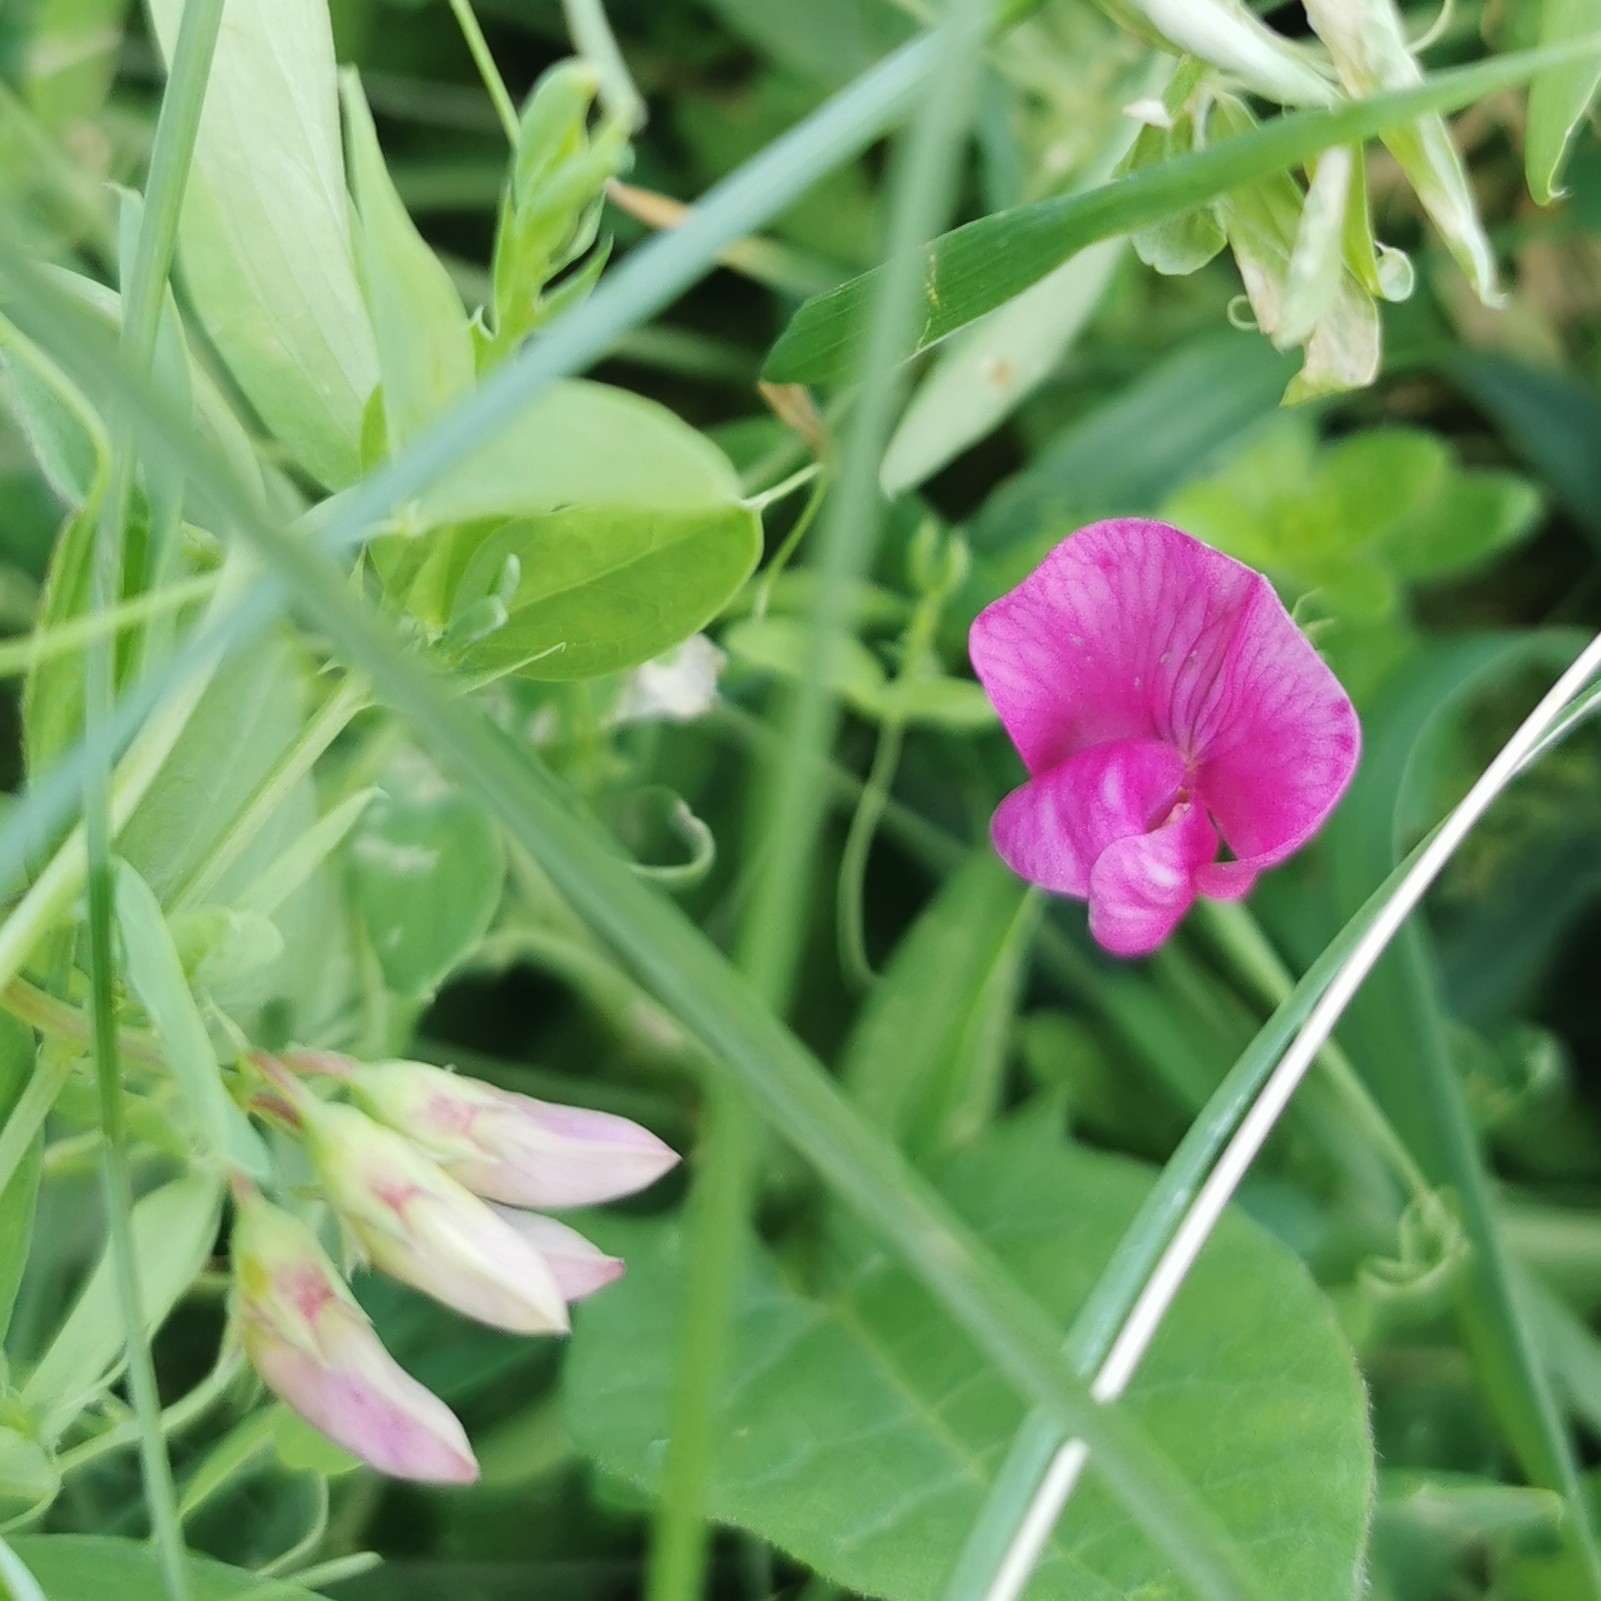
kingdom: Plantae
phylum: Tracheophyta
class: Magnoliopsida
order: Fabales
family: Fabaceae
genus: Lathyrus
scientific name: Lathyrus tuberosus
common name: Tuberous pea
